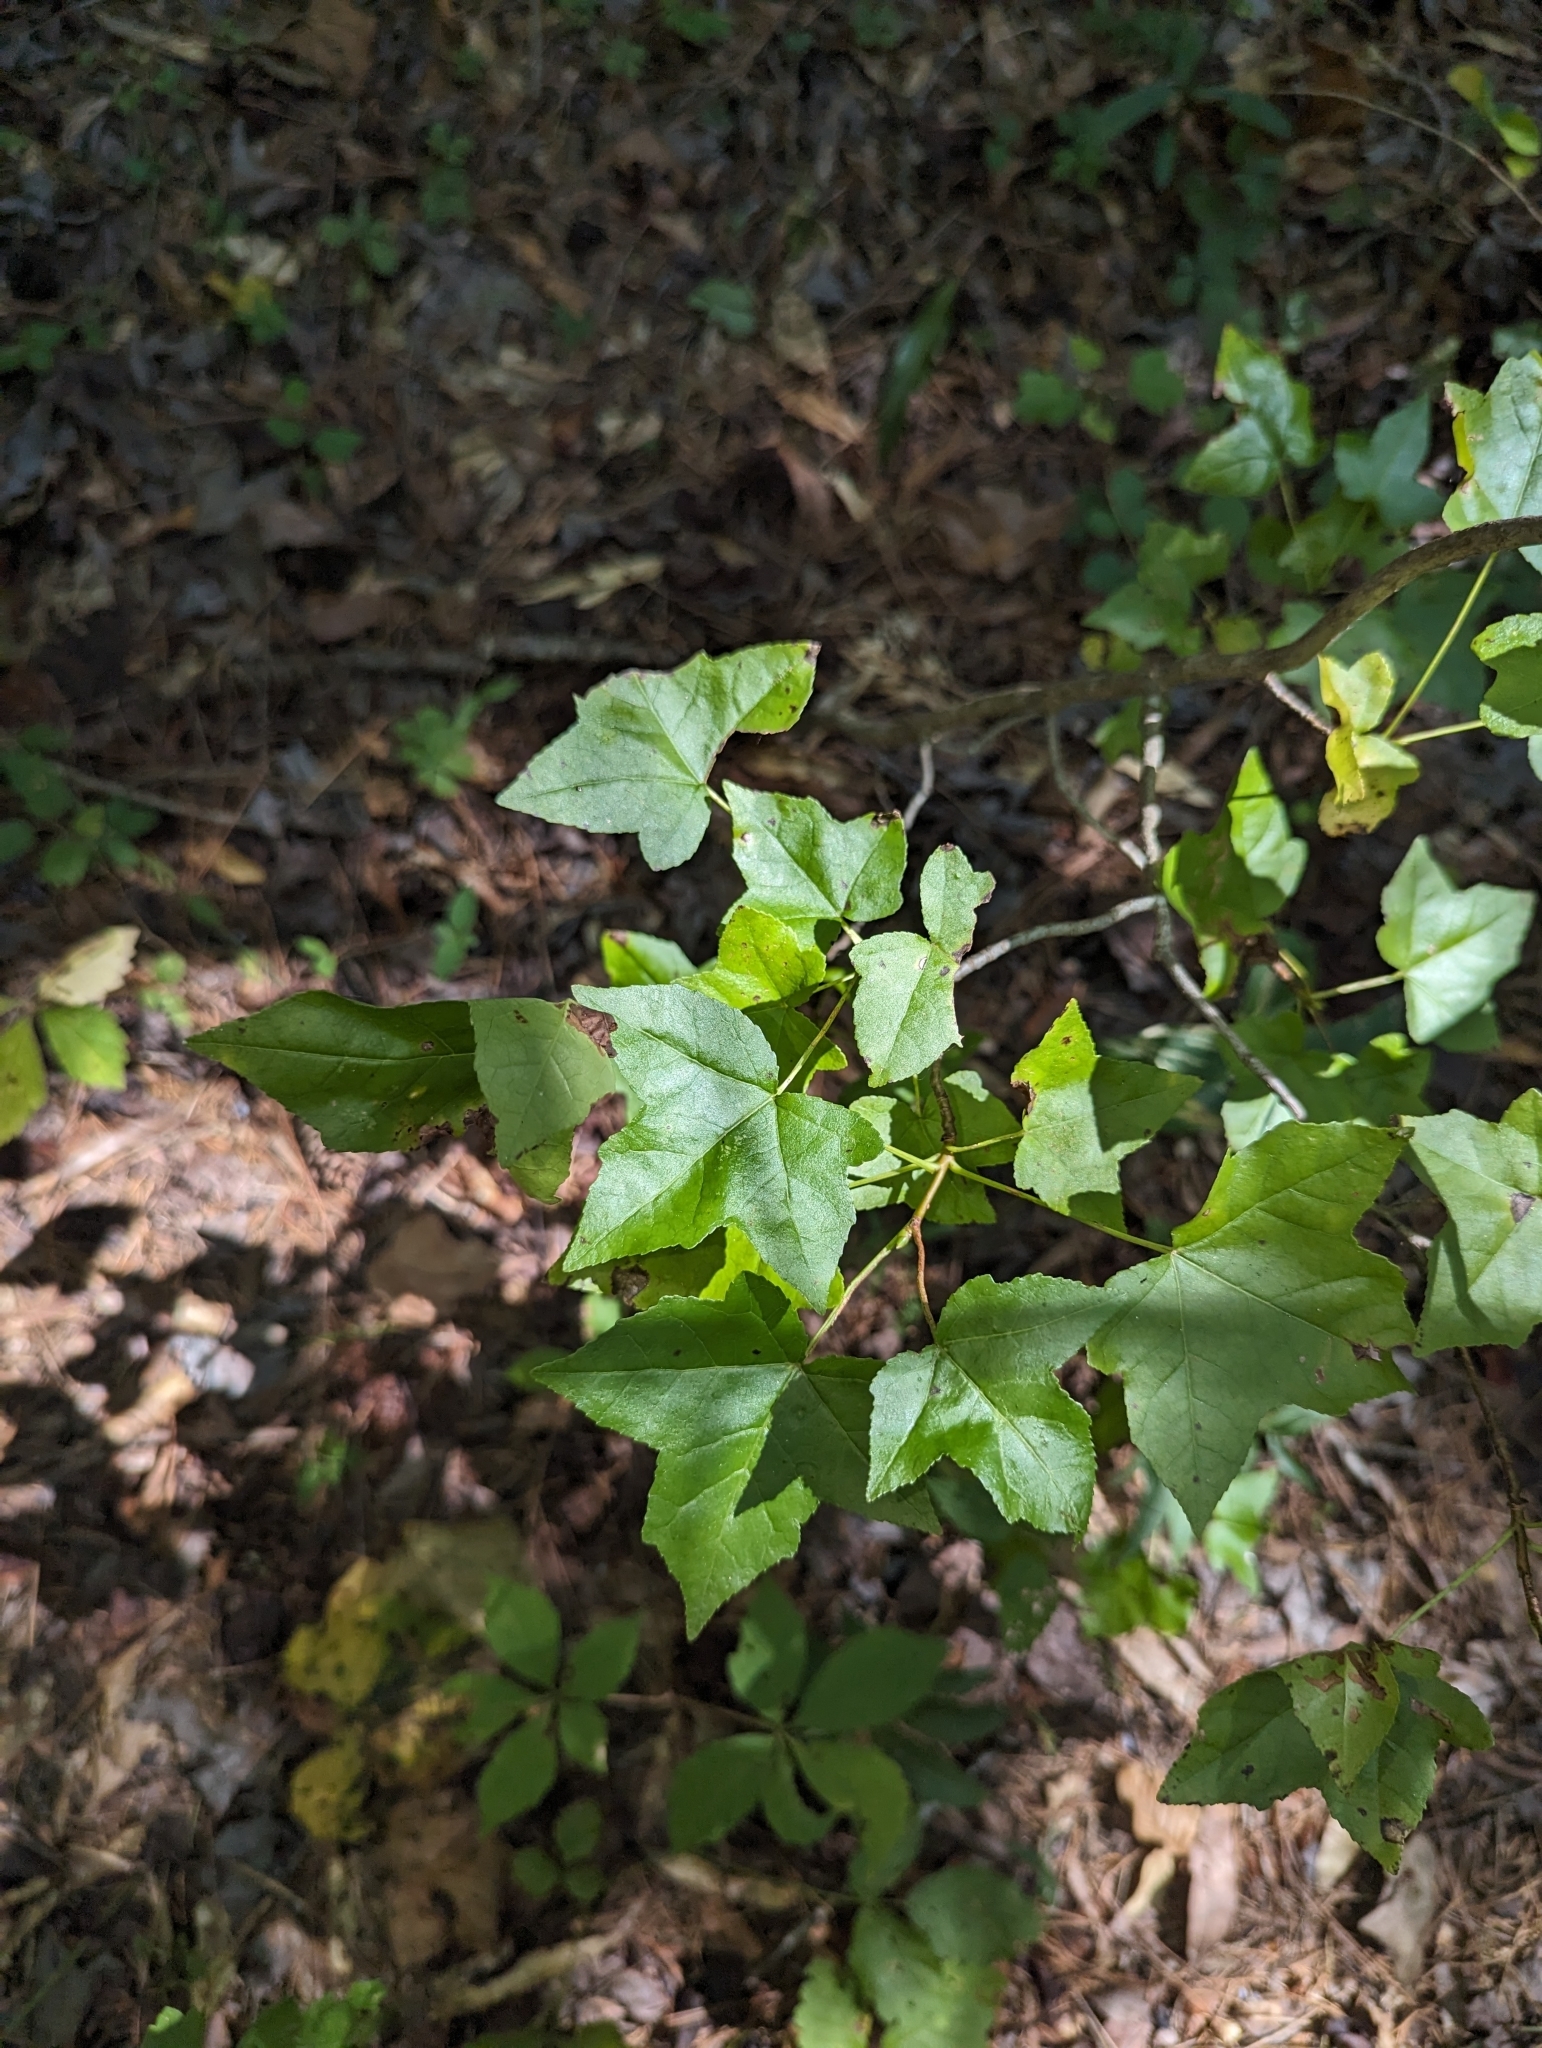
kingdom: Plantae
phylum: Tracheophyta
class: Magnoliopsida
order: Saxifragales
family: Altingiaceae
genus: Liquidambar
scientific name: Liquidambar styraciflua
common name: Sweet gum
